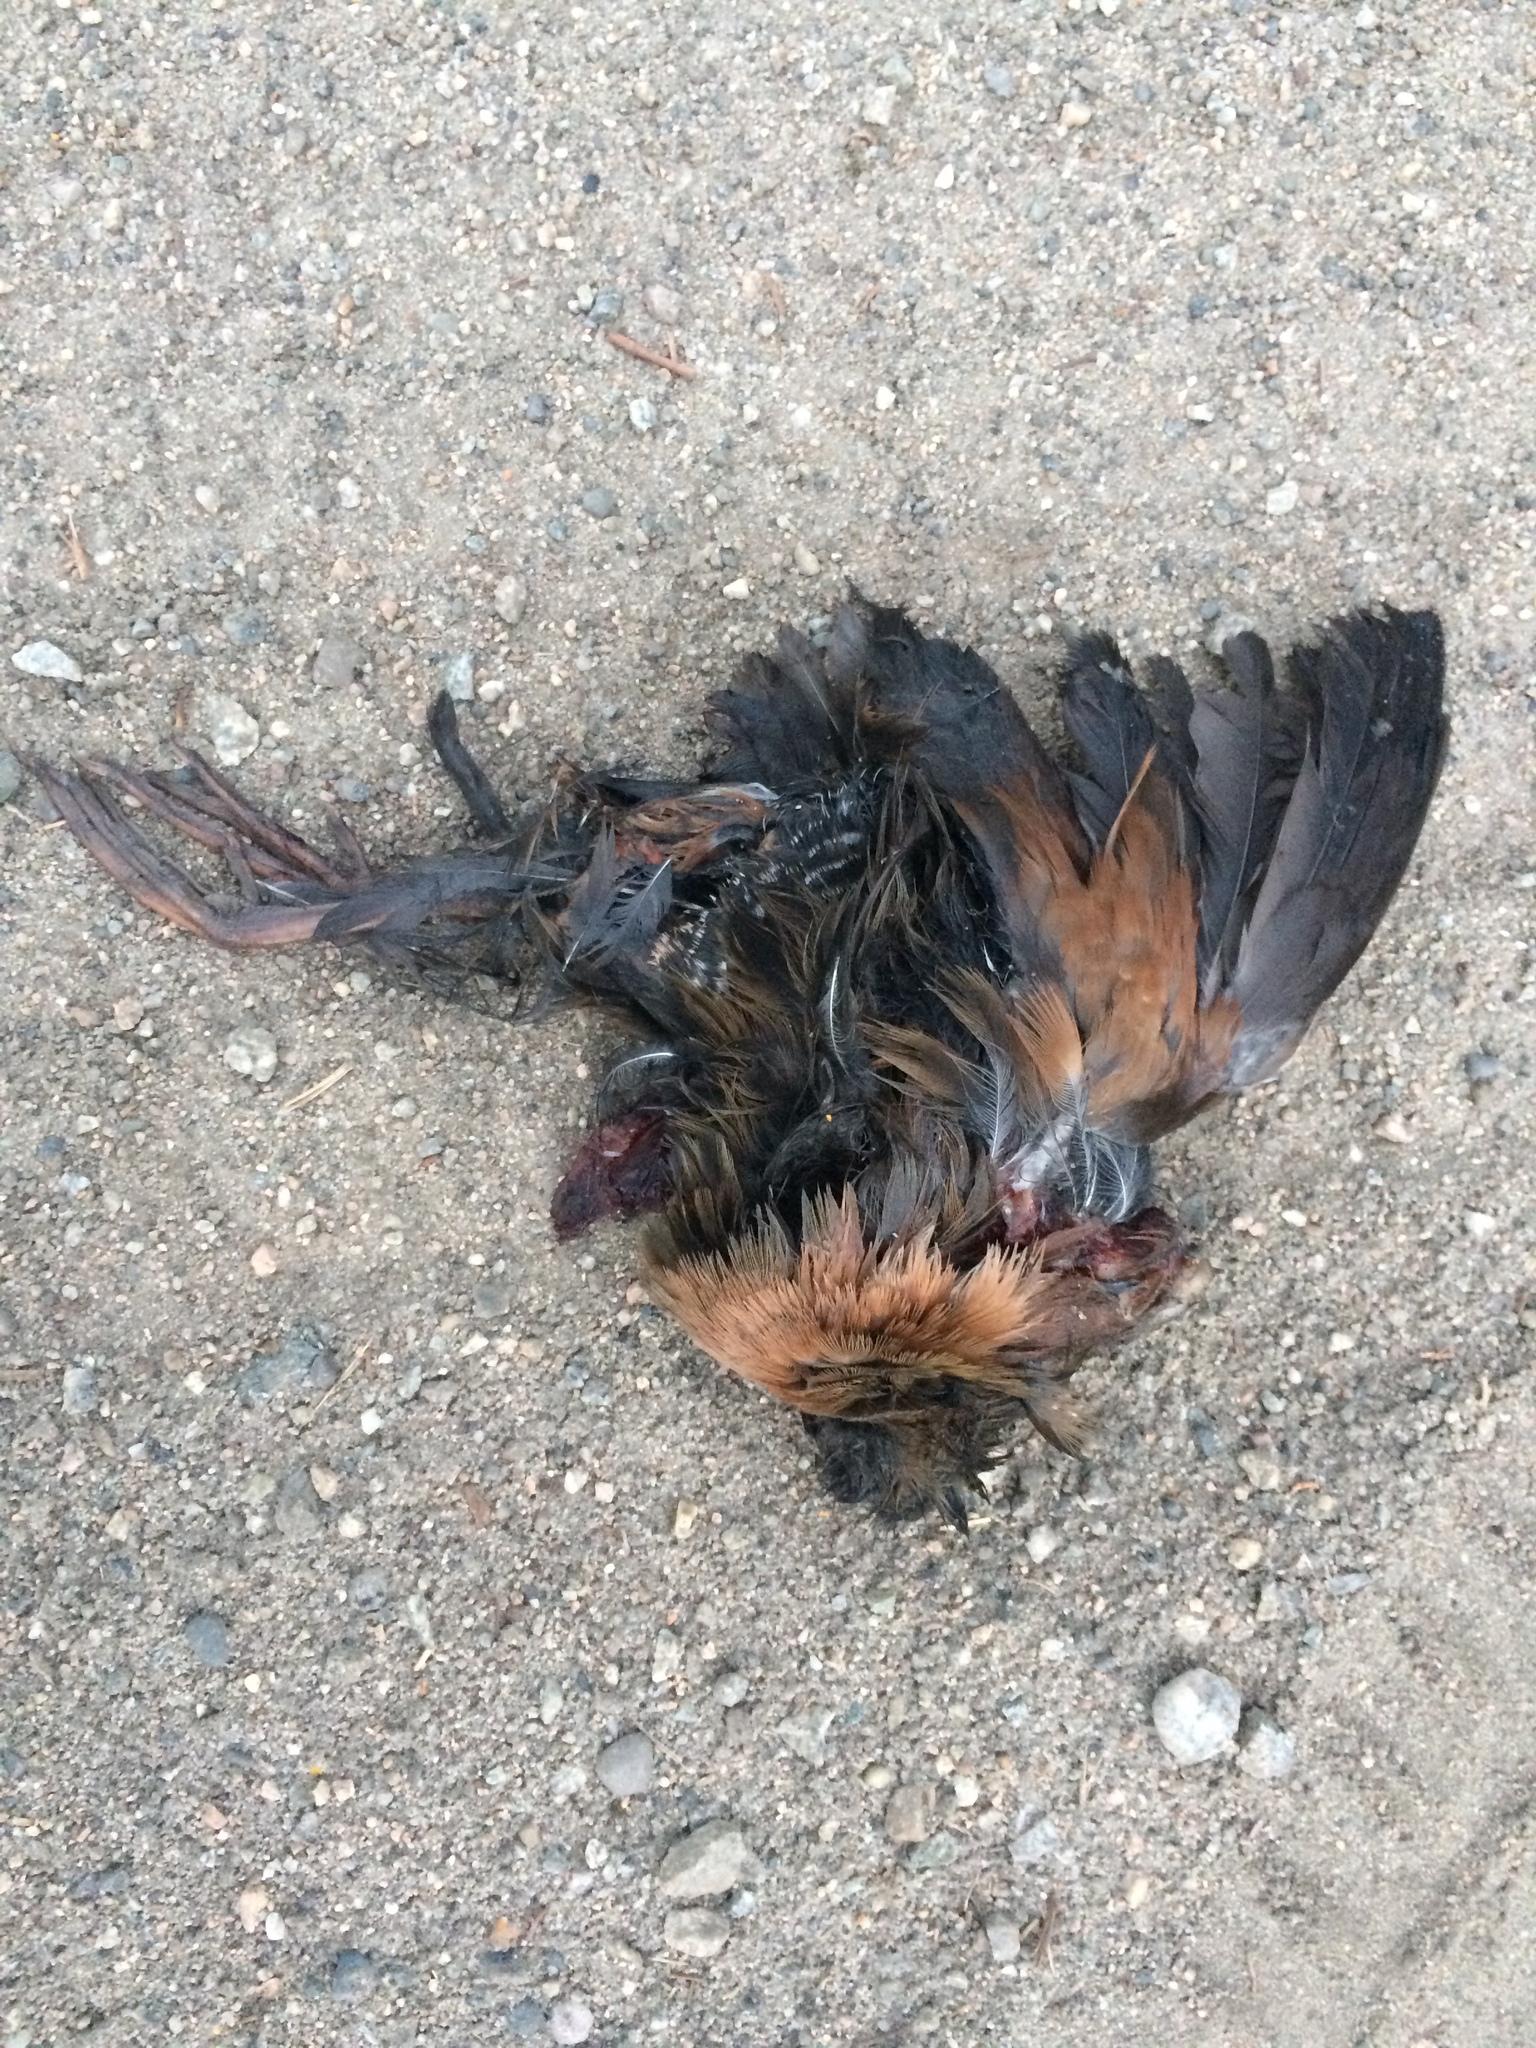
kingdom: Animalia
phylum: Chordata
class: Aves
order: Gruiformes
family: Rallidae
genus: Rallus
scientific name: Rallus limicola
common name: Virginia rail
